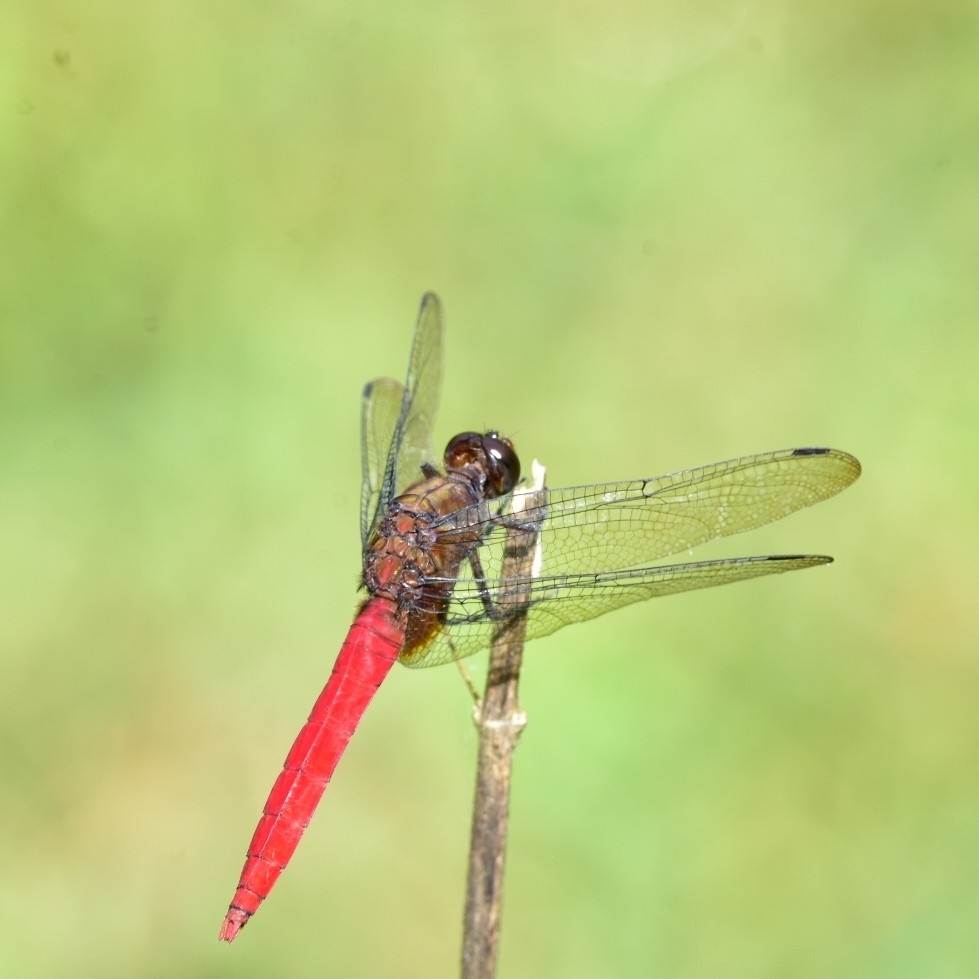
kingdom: Animalia
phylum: Arthropoda
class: Insecta
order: Odonata
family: Libellulidae
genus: Orthetrum
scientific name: Orthetrum chrysis
